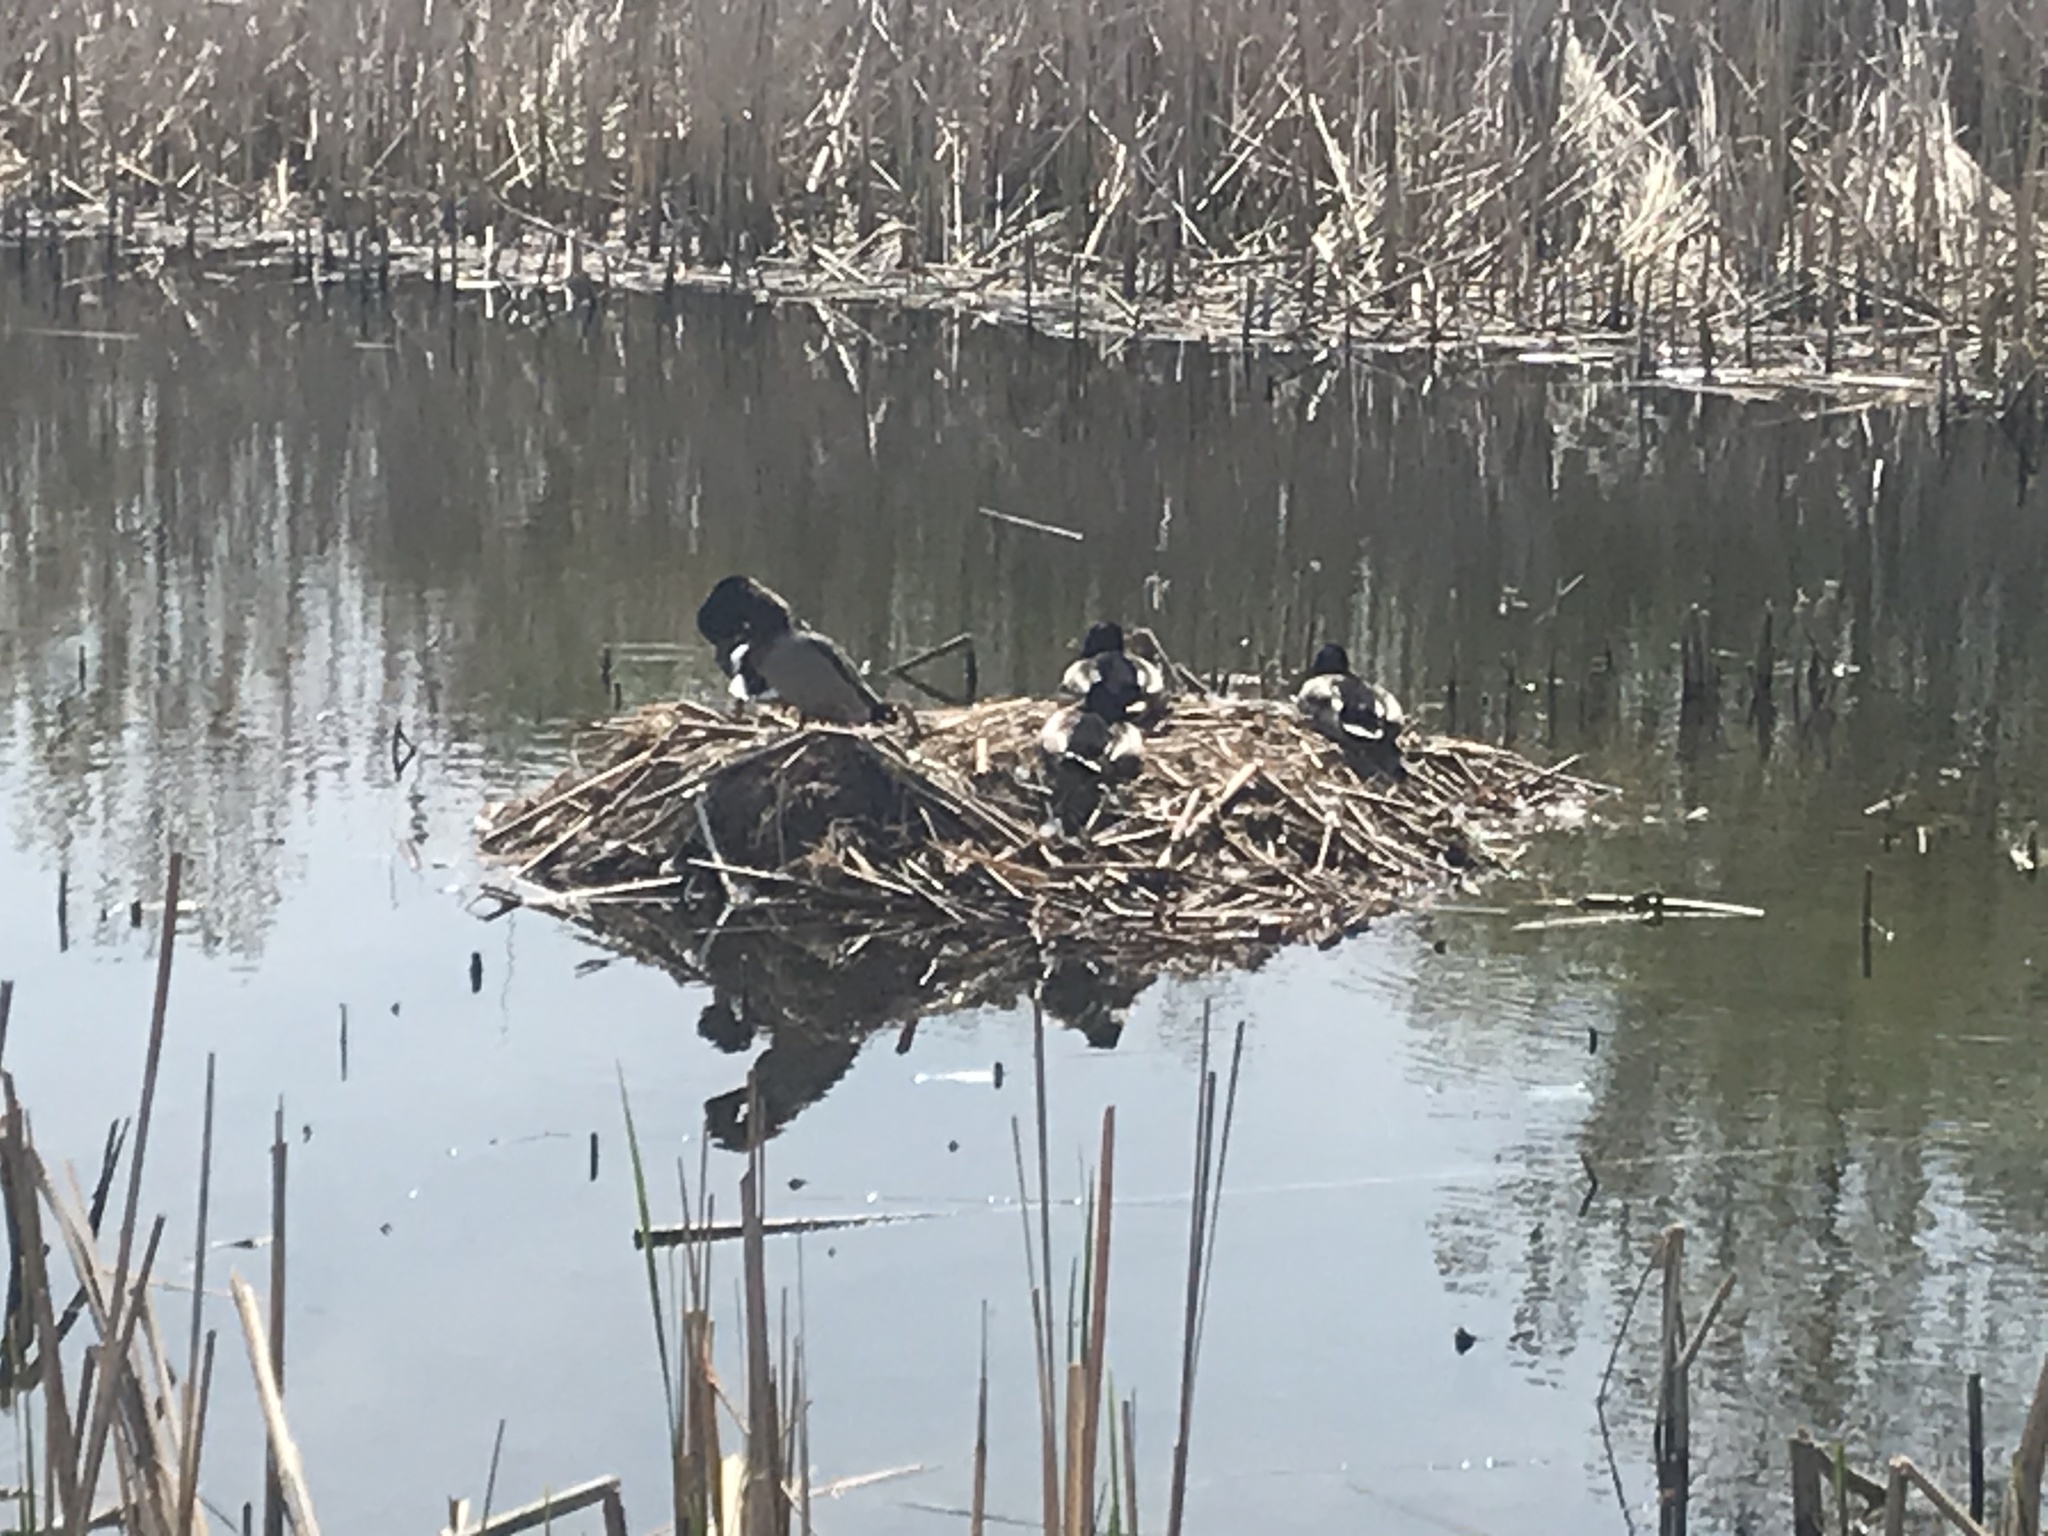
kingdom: Animalia
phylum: Chordata
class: Aves
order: Anseriformes
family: Anatidae
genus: Anas
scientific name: Anas platyrhynchos
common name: Mallard
